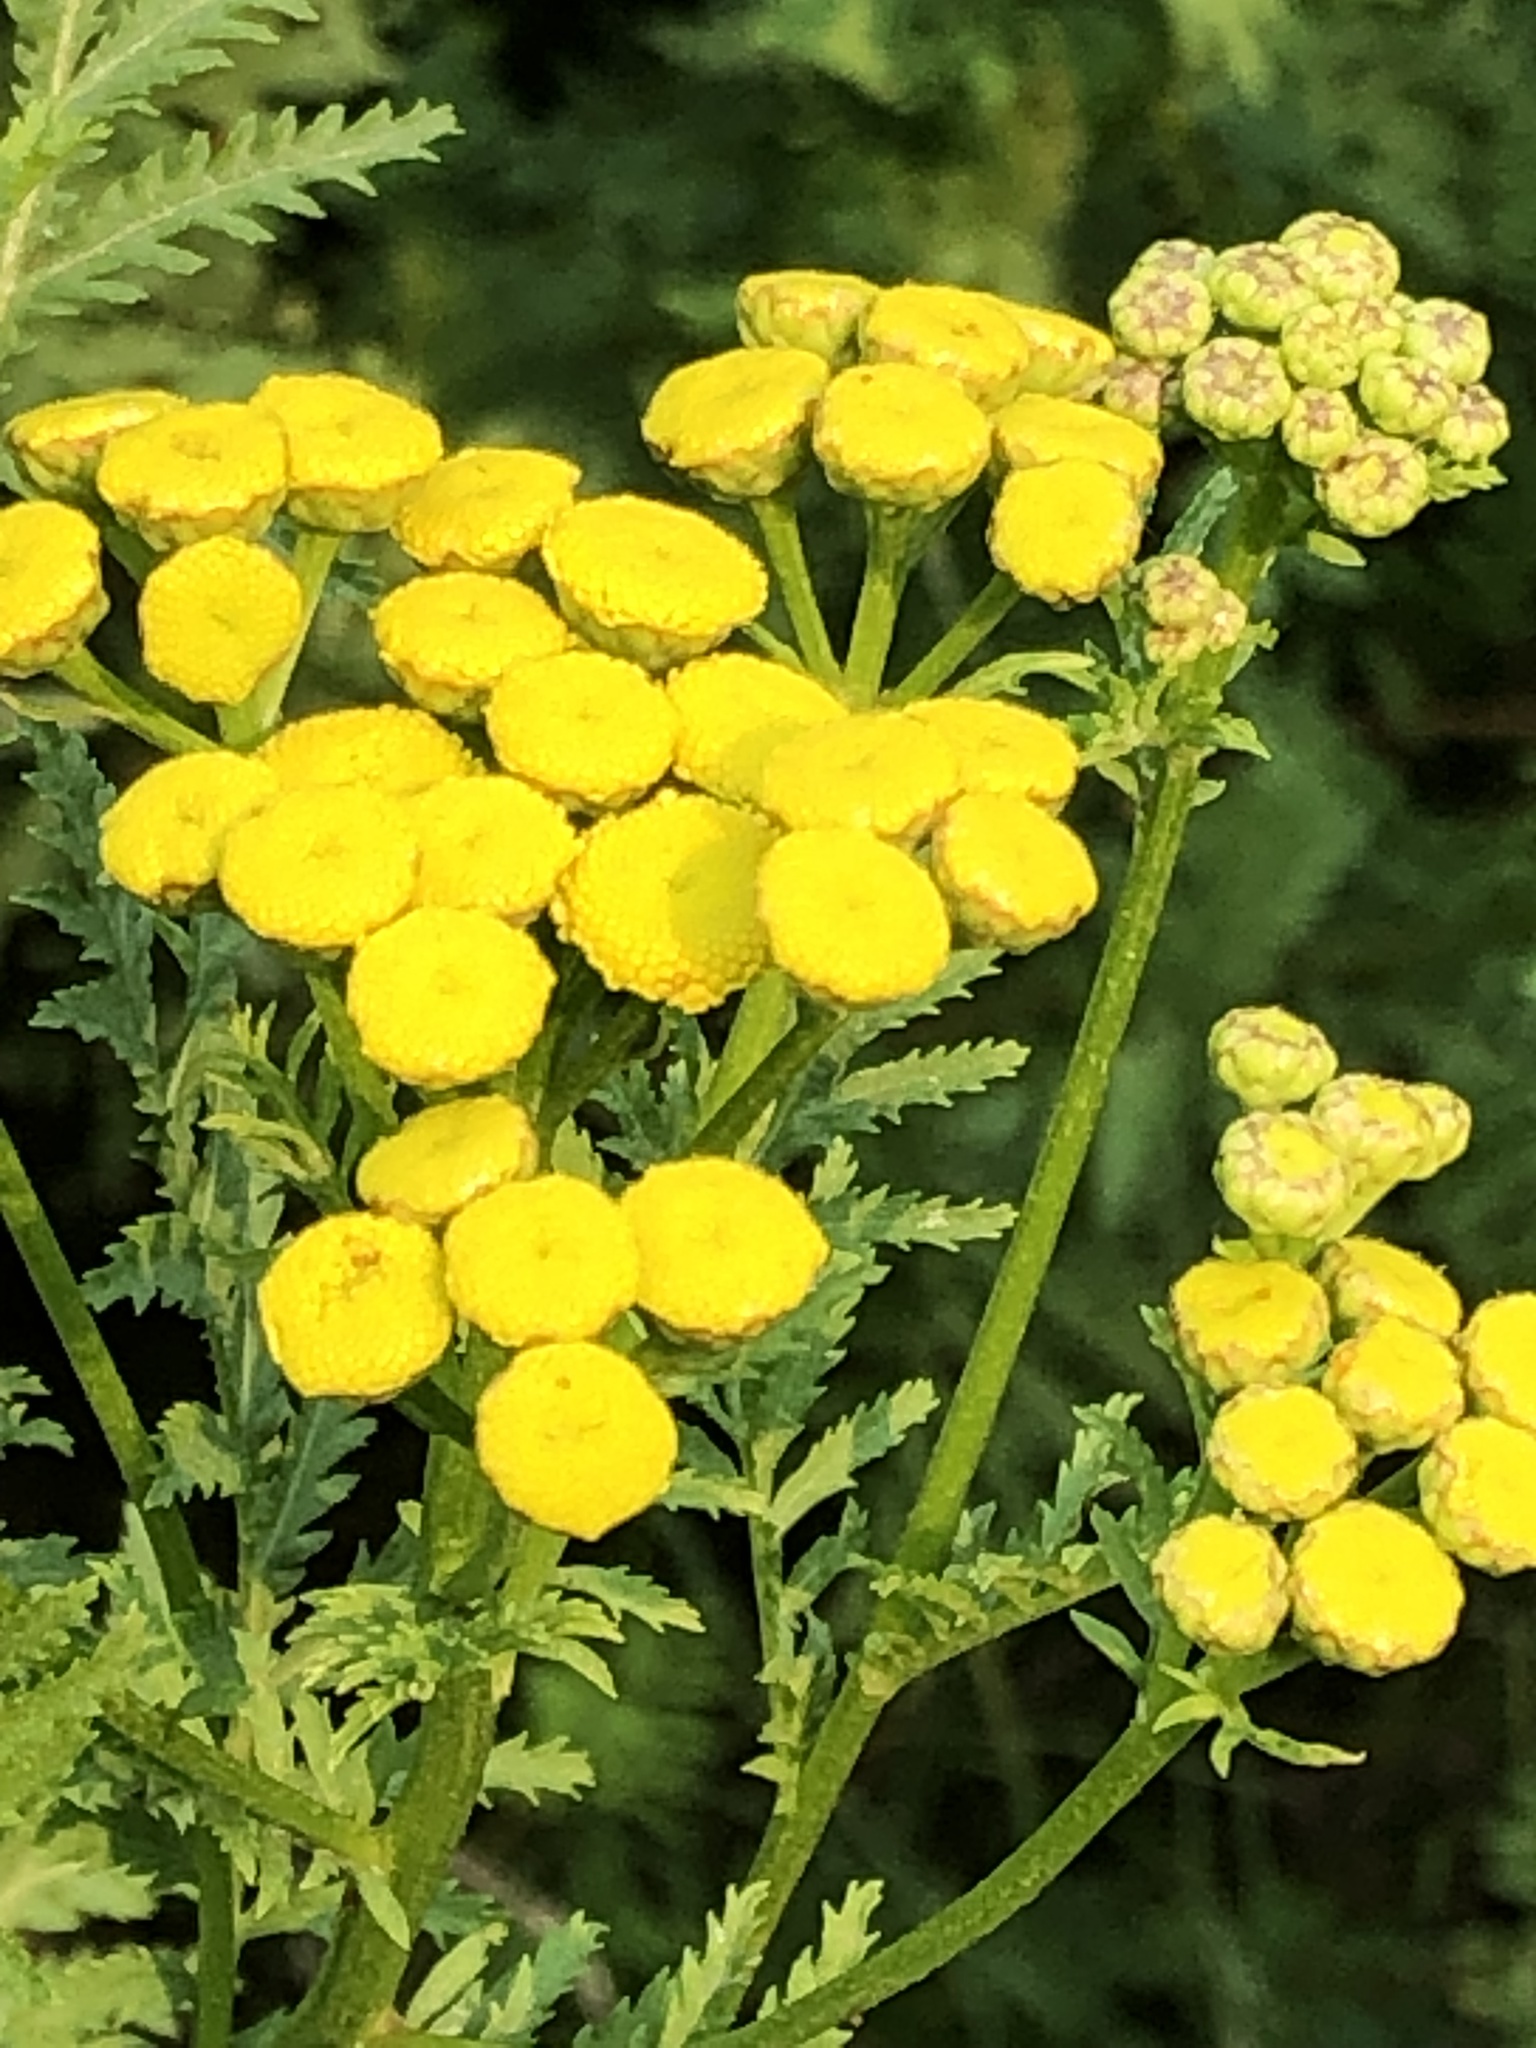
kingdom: Plantae
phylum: Tracheophyta
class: Magnoliopsida
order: Asterales
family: Asteraceae
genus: Tanacetum
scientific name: Tanacetum vulgare
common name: Common tansy
